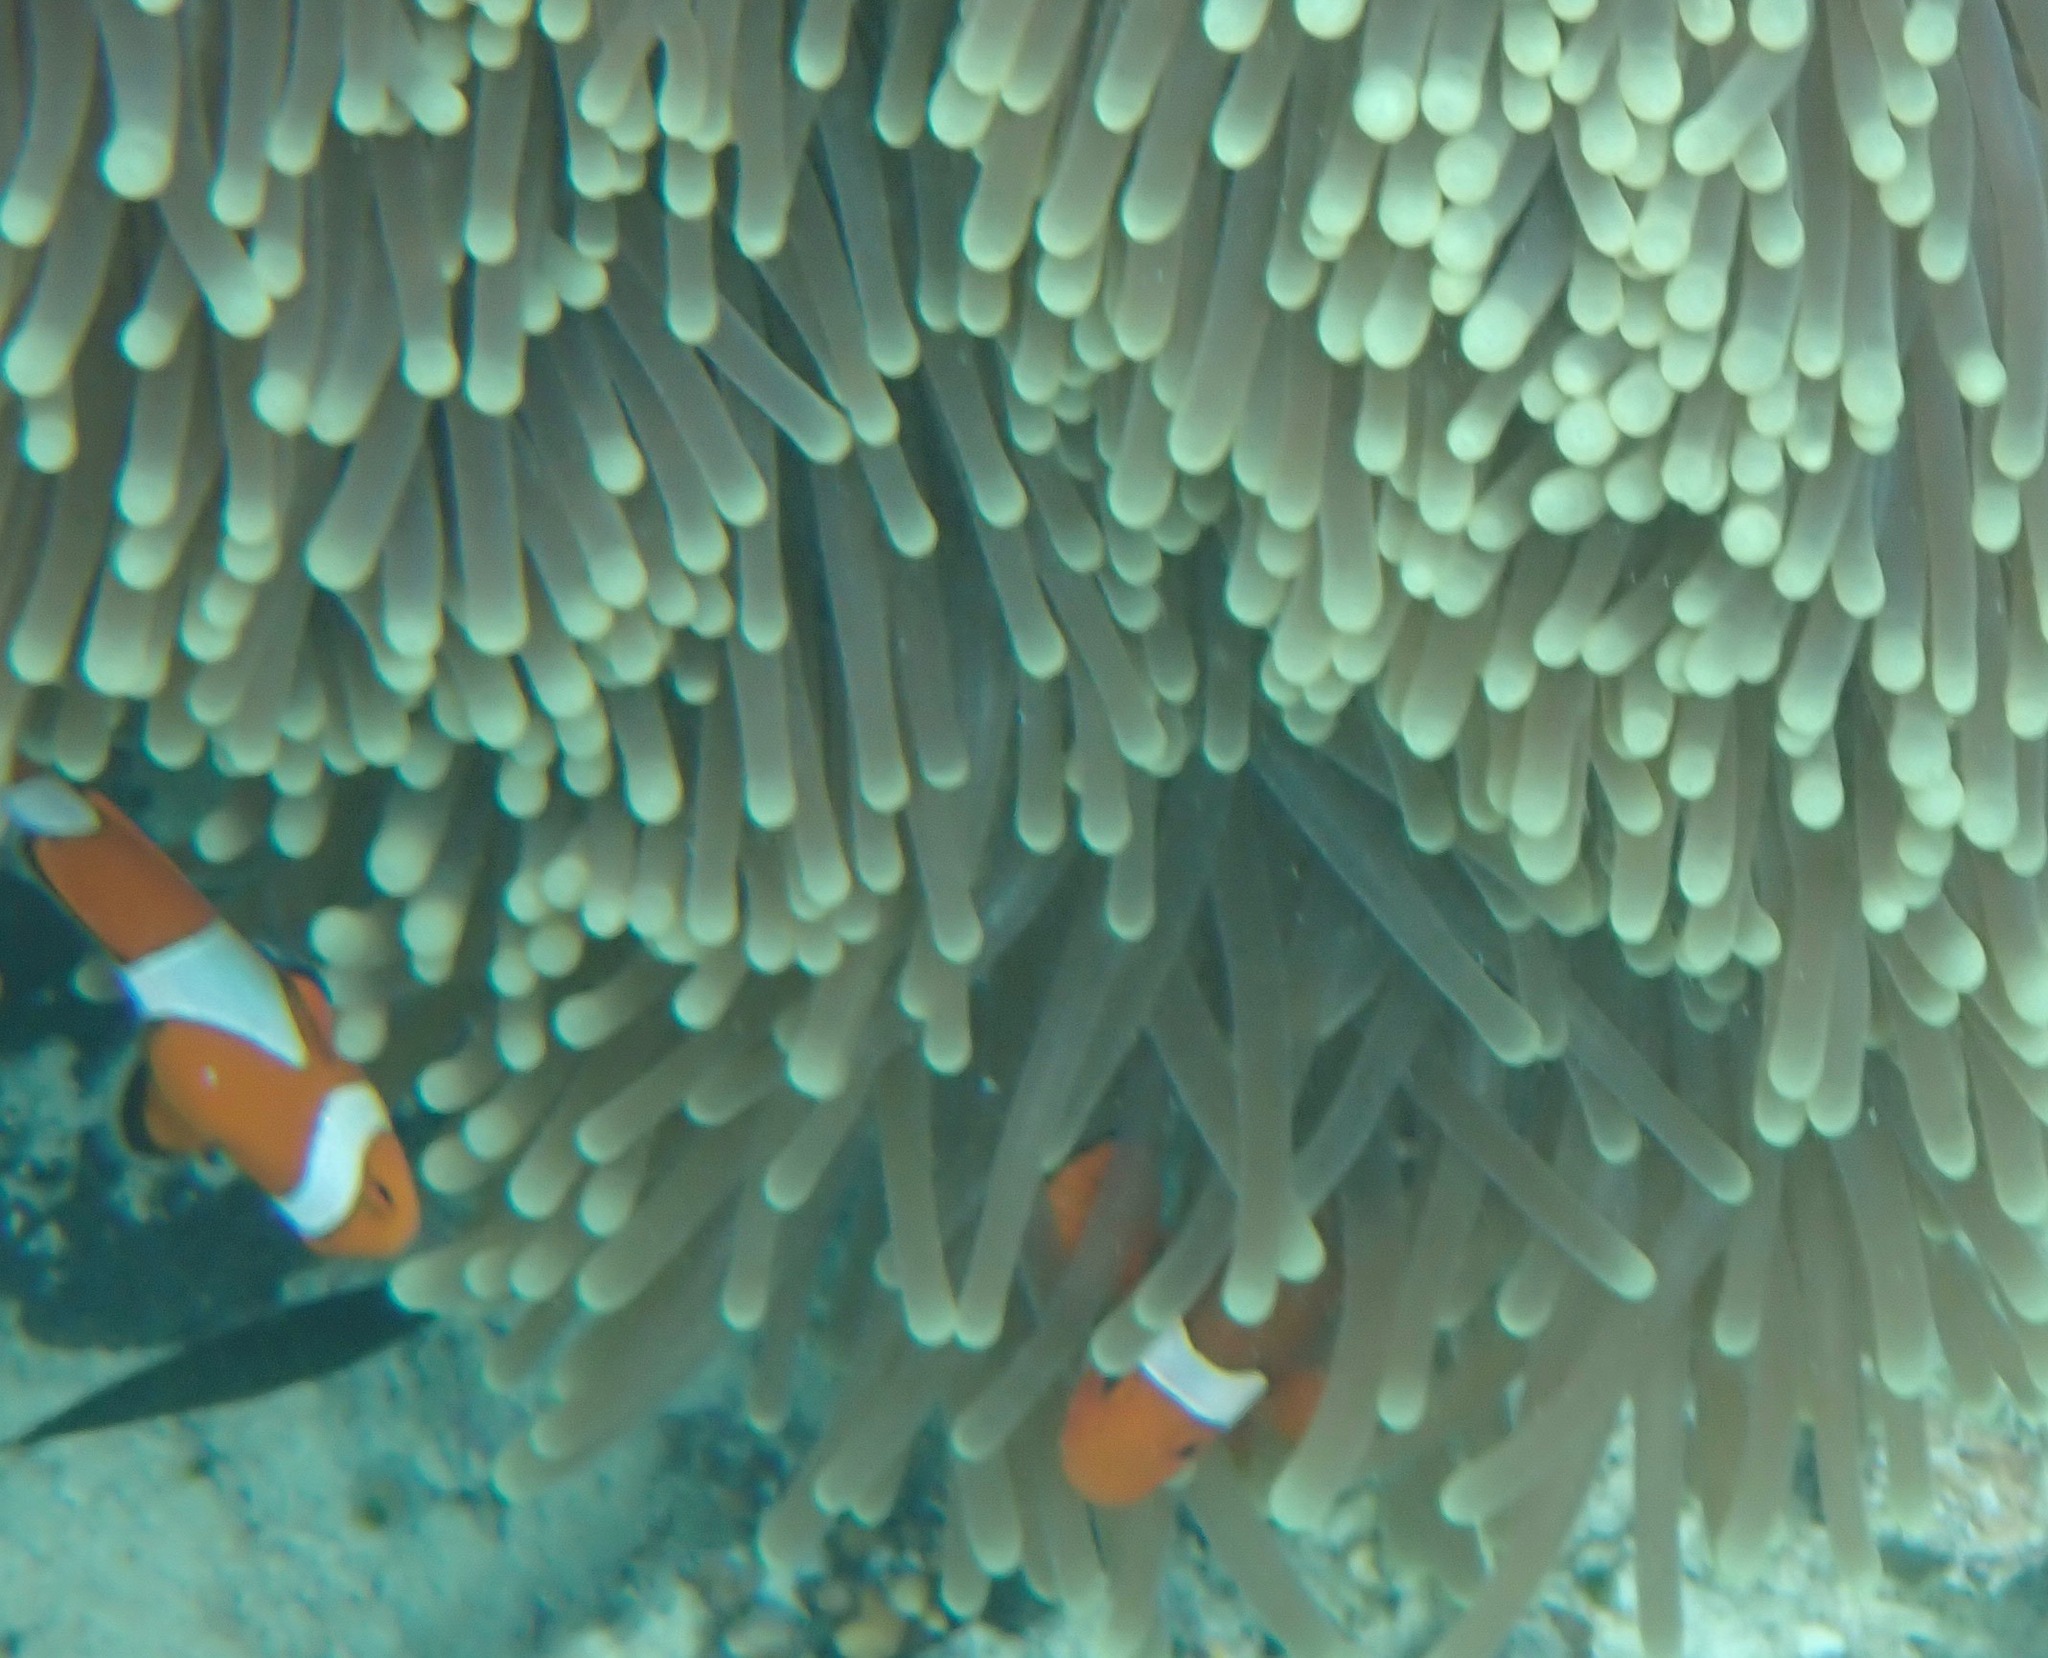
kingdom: Animalia
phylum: Chordata
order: Perciformes
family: Pomacentridae
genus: Amphiprion
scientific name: Amphiprion ocellaris
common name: Clown anemonefish
